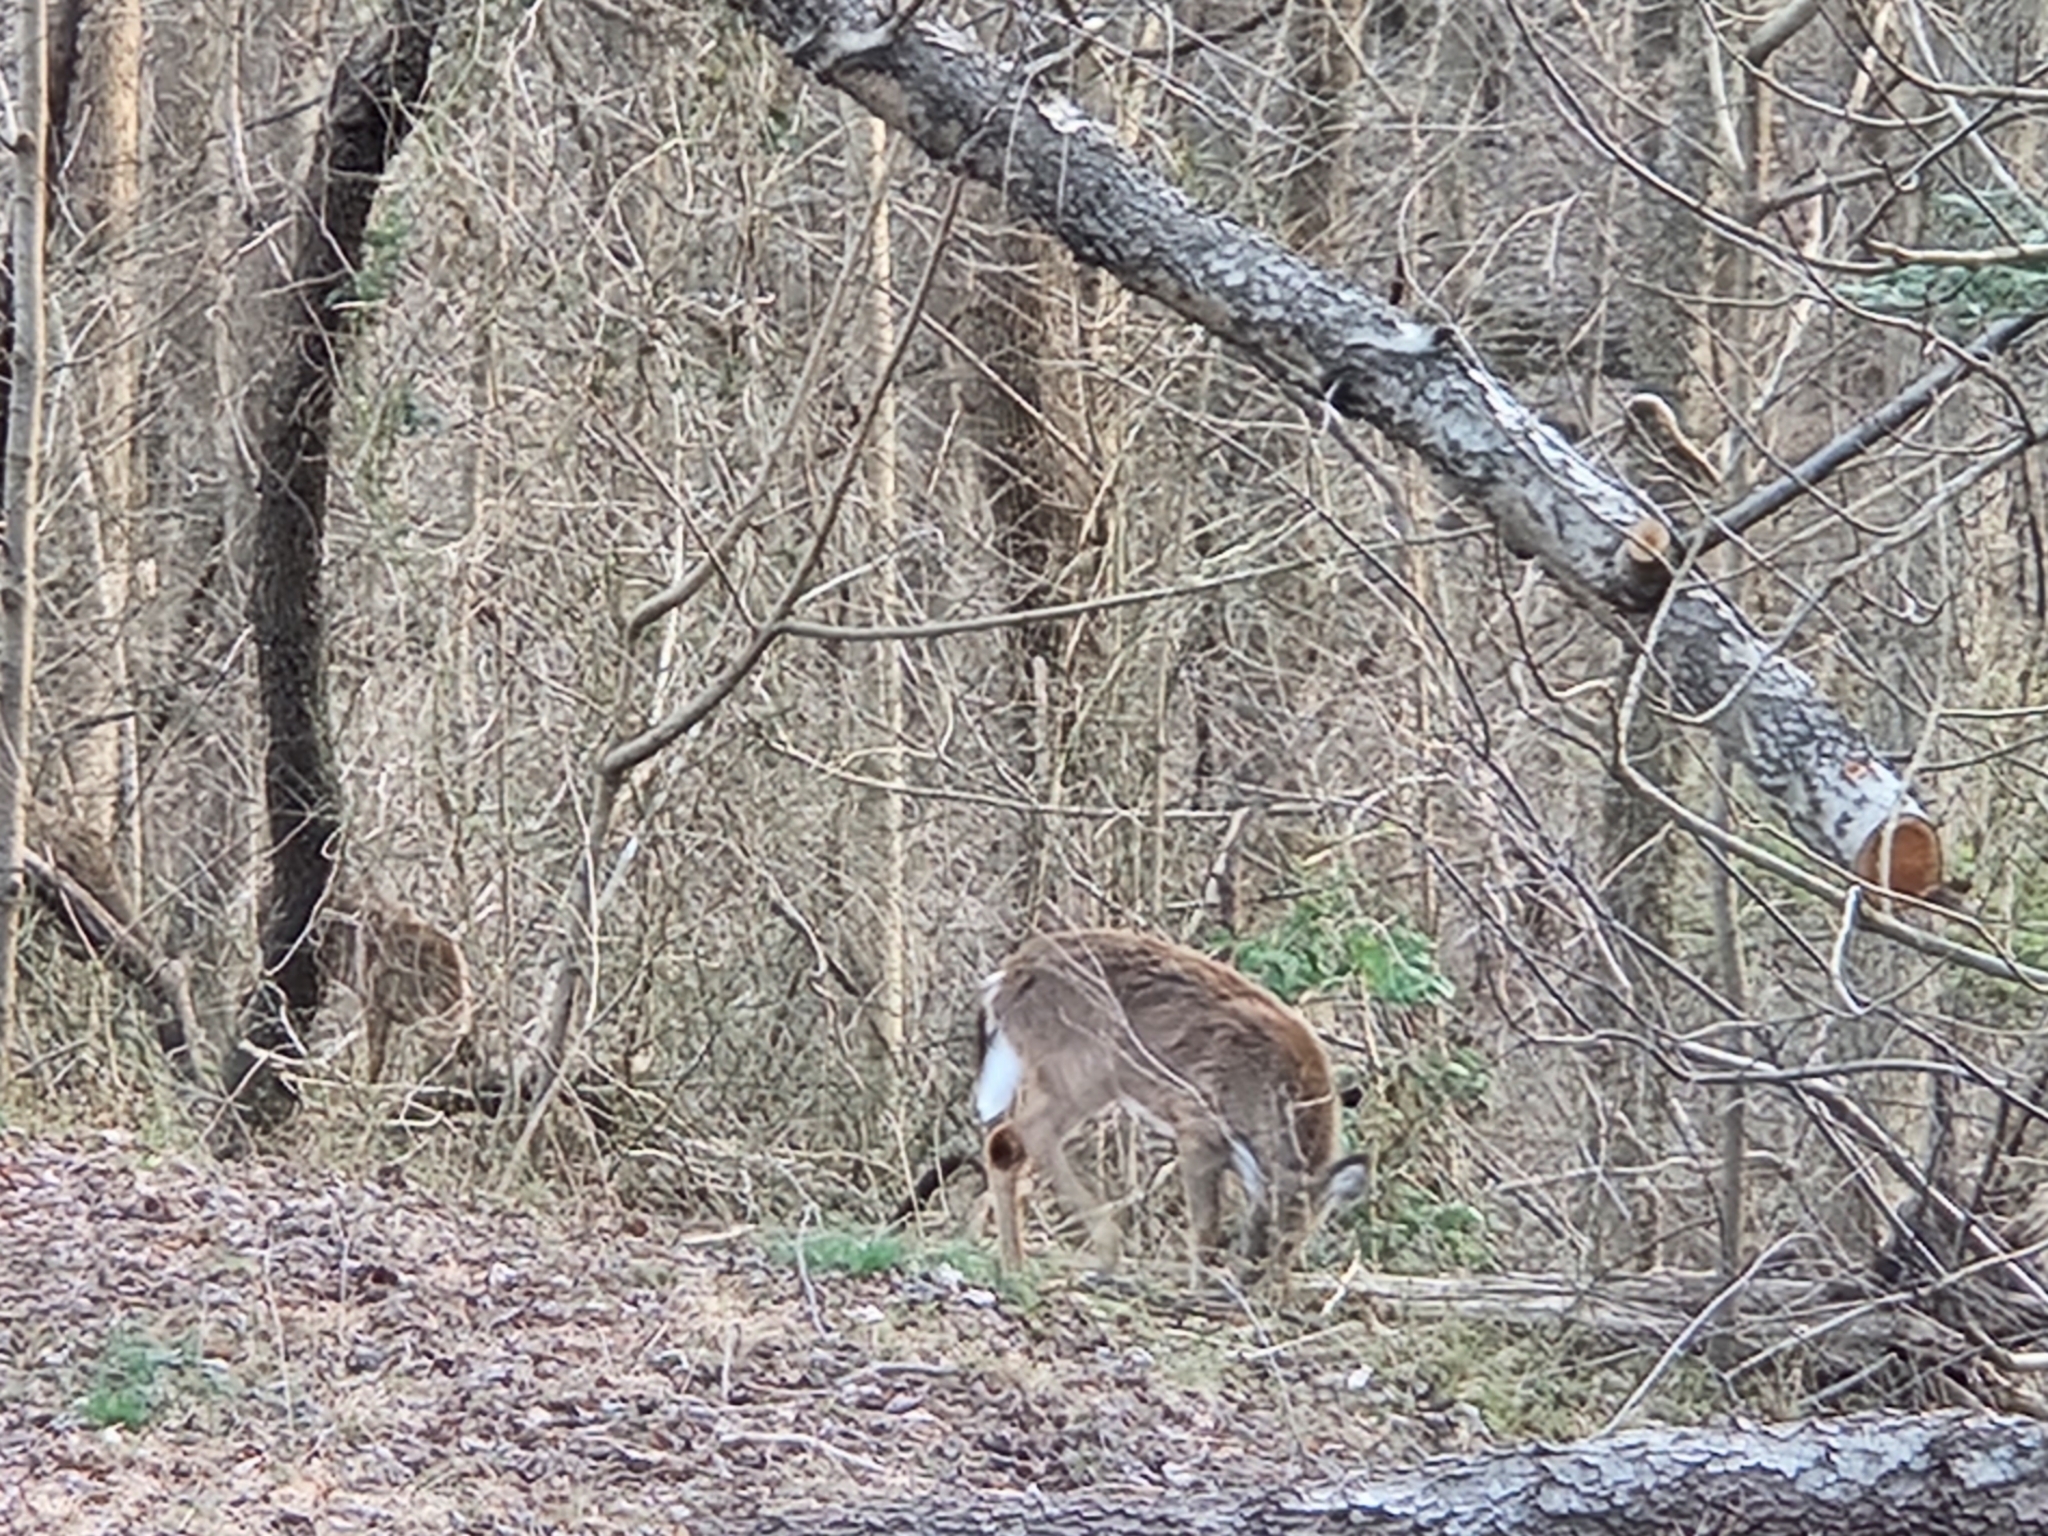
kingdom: Animalia
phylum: Chordata
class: Mammalia
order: Artiodactyla
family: Cervidae
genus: Odocoileus
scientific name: Odocoileus virginianus
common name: White-tailed deer
